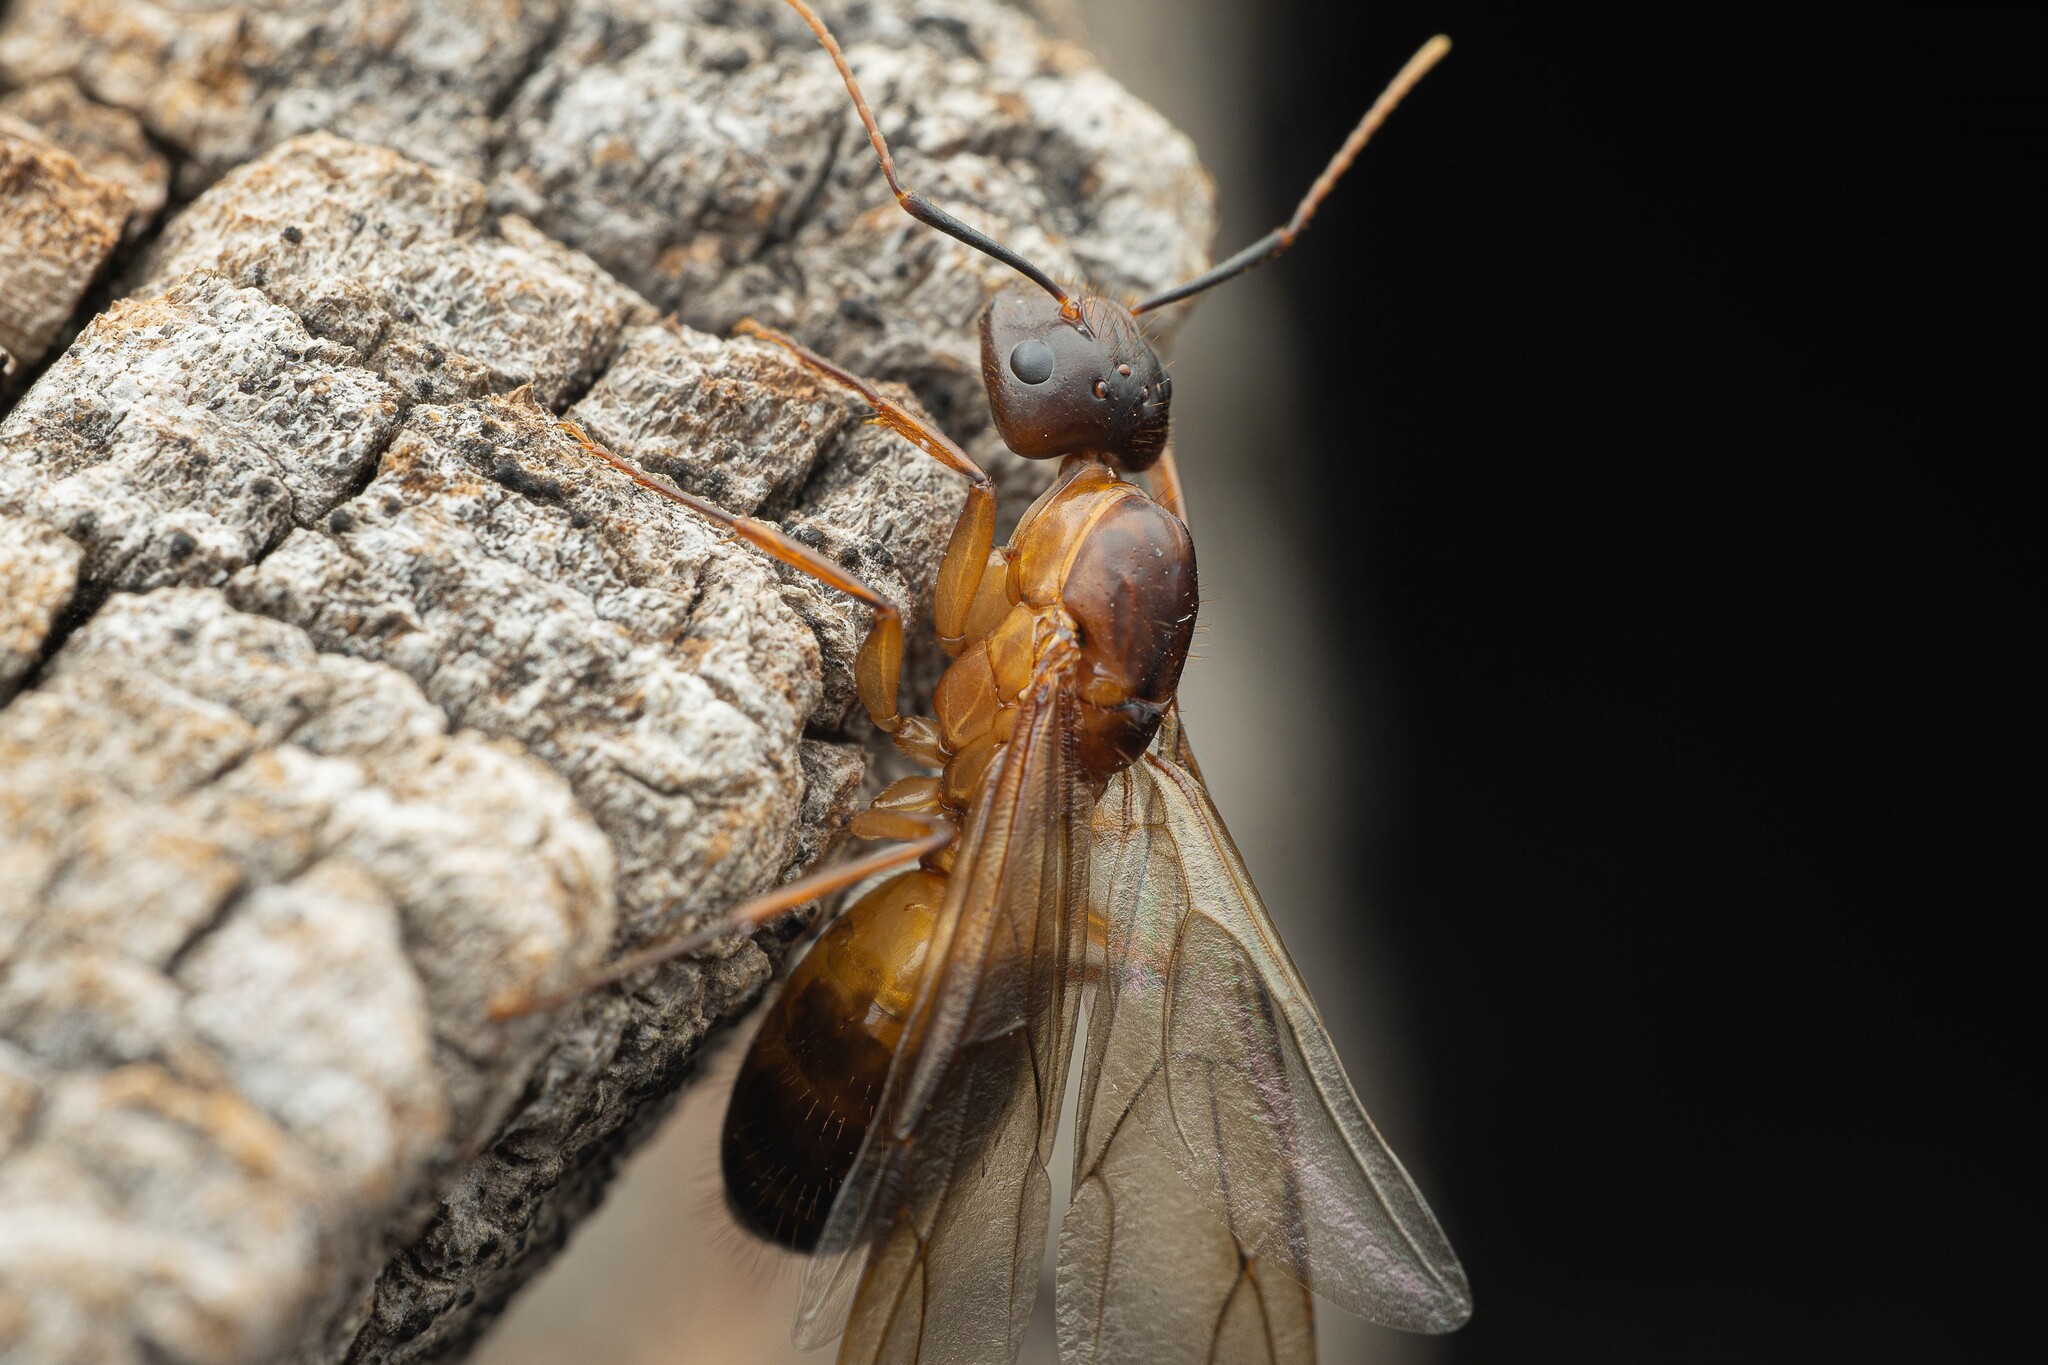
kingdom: Animalia
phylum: Arthropoda
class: Insecta
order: Hymenoptera
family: Formicidae
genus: Camponotus
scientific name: Camponotus pudorosus
